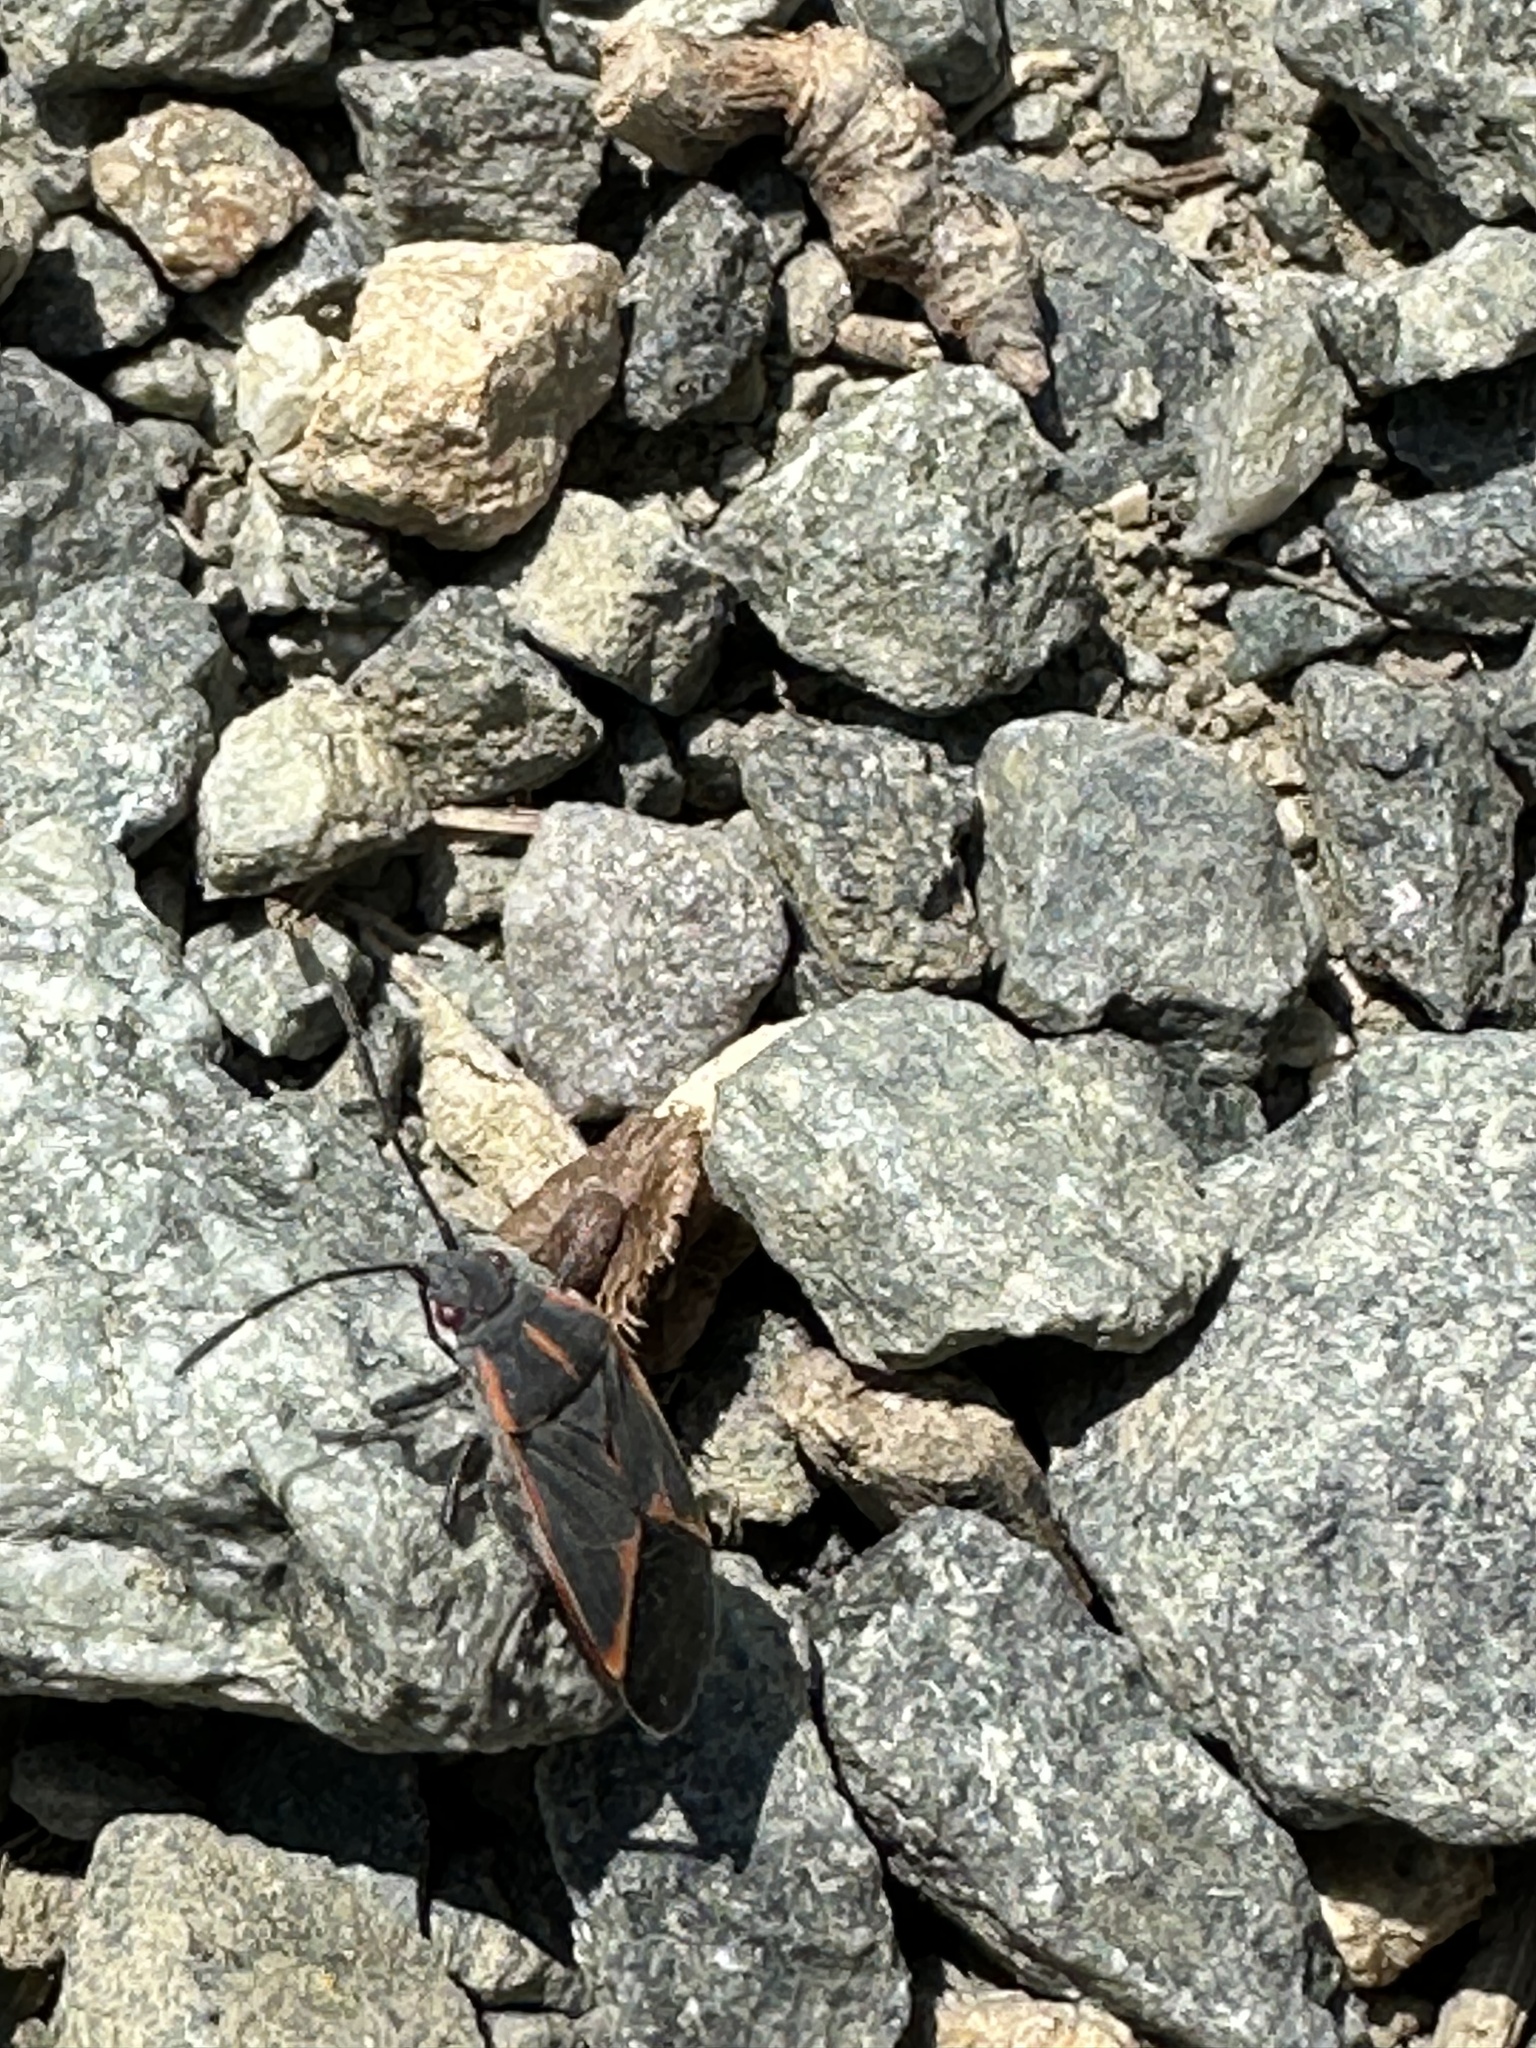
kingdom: Animalia
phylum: Arthropoda
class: Insecta
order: Hemiptera
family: Rhopalidae
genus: Boisea
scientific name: Boisea trivittata
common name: Boxelder bug
